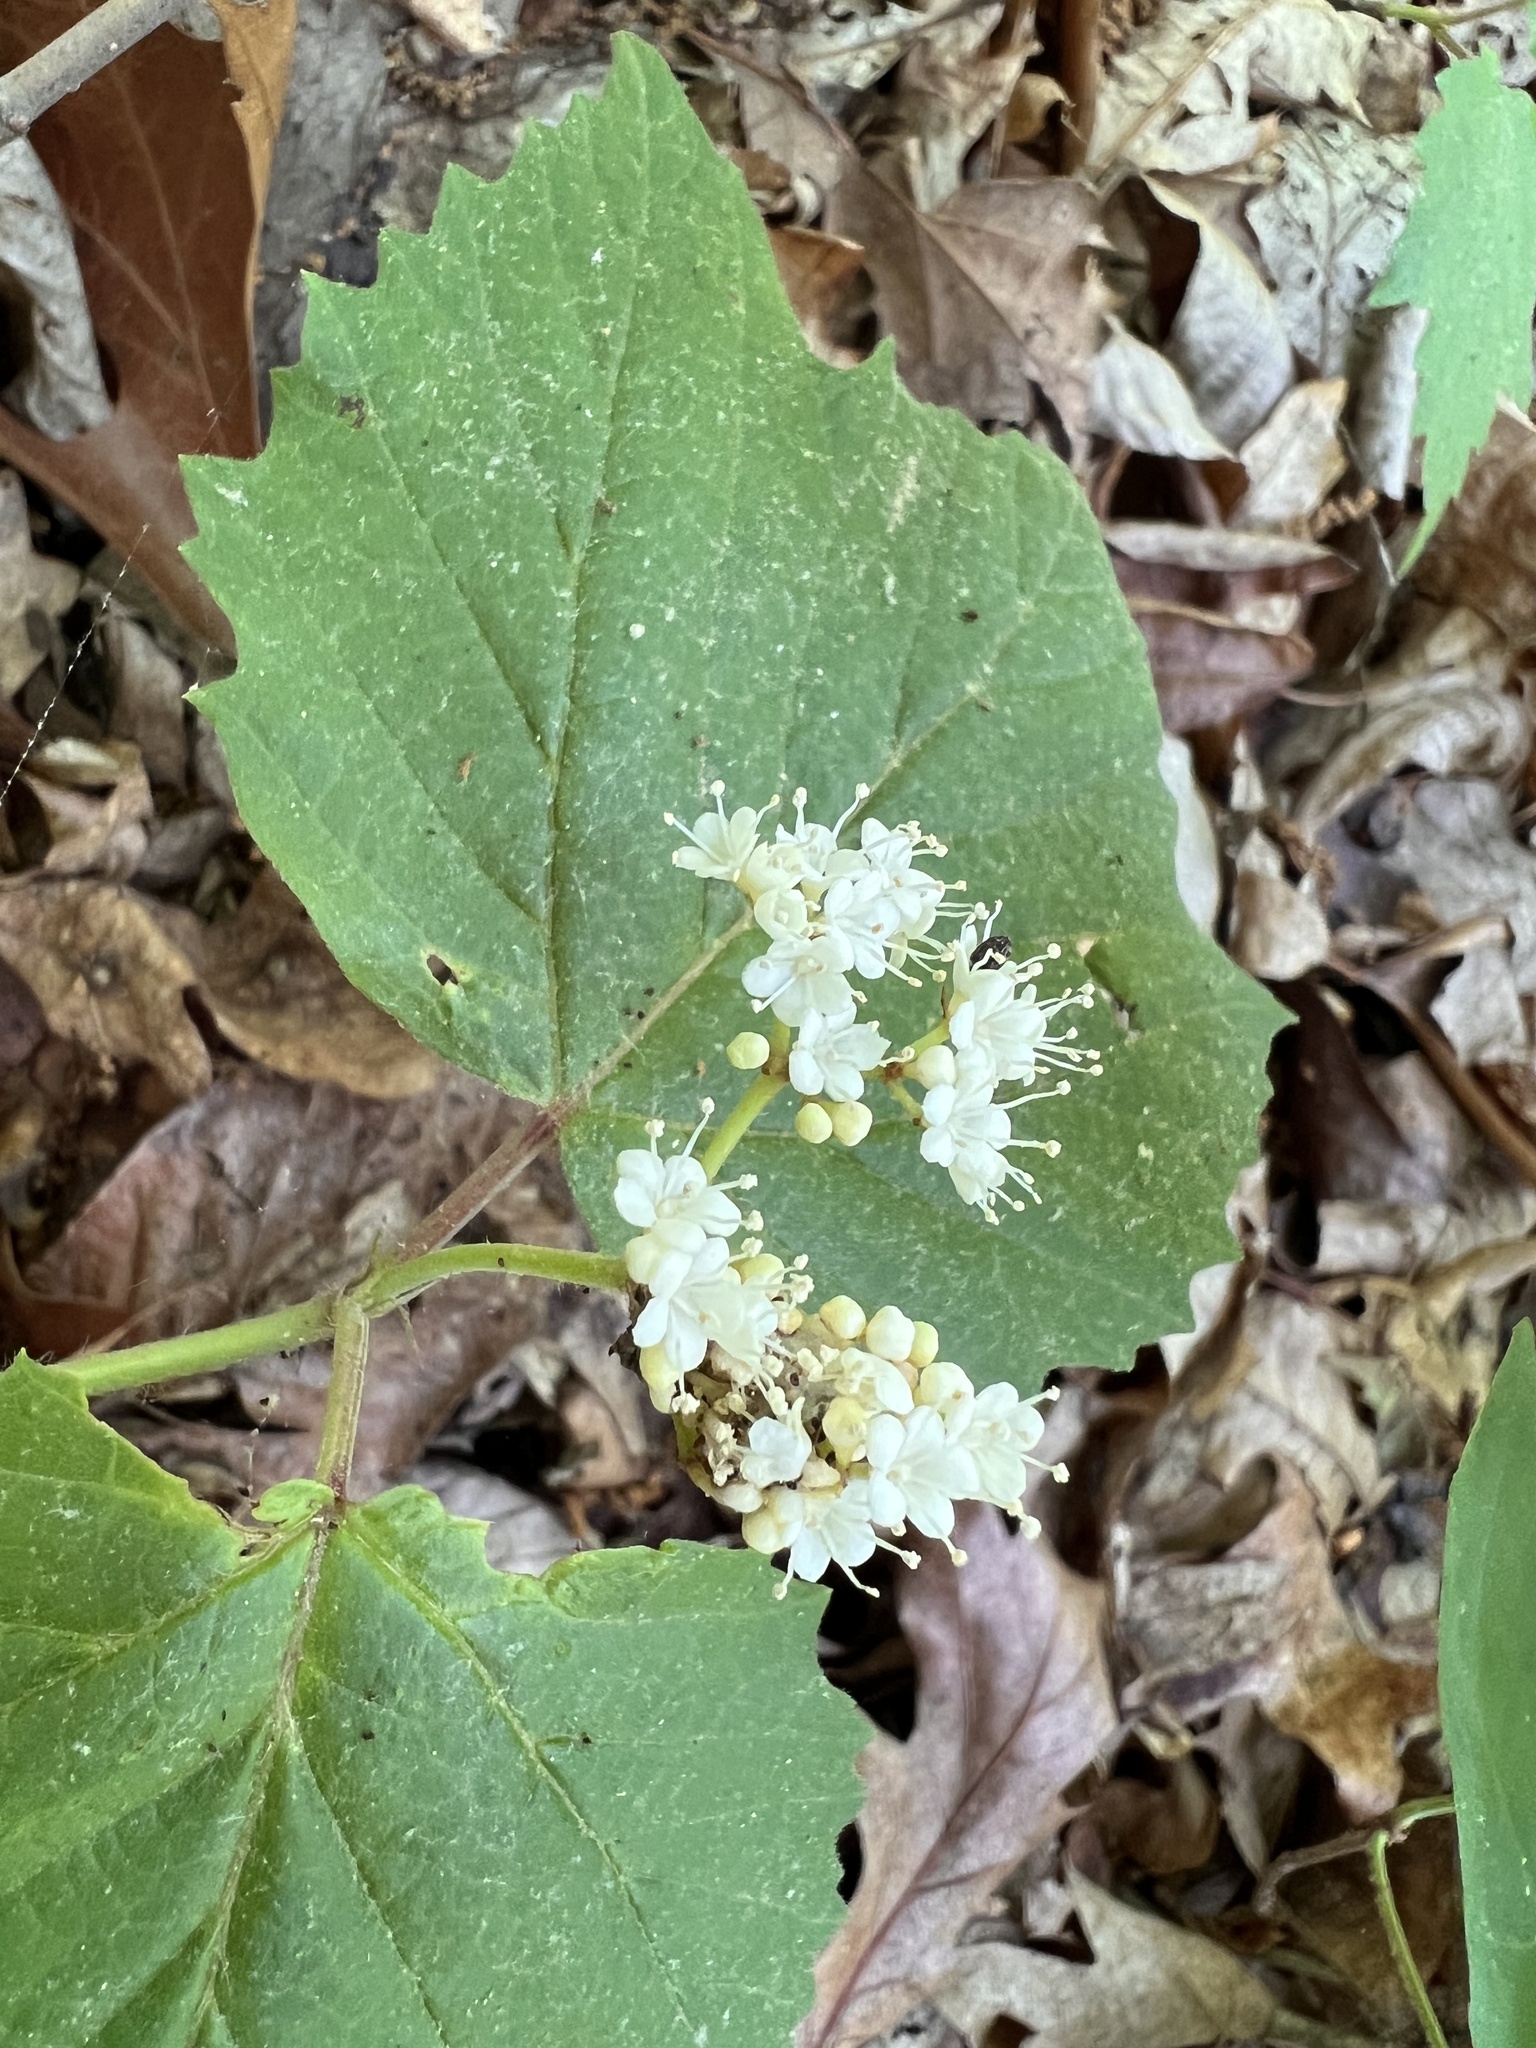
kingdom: Plantae
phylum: Tracheophyta
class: Magnoliopsida
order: Dipsacales
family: Viburnaceae
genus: Viburnum
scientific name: Viburnum acerifolium
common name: Dockmackie
